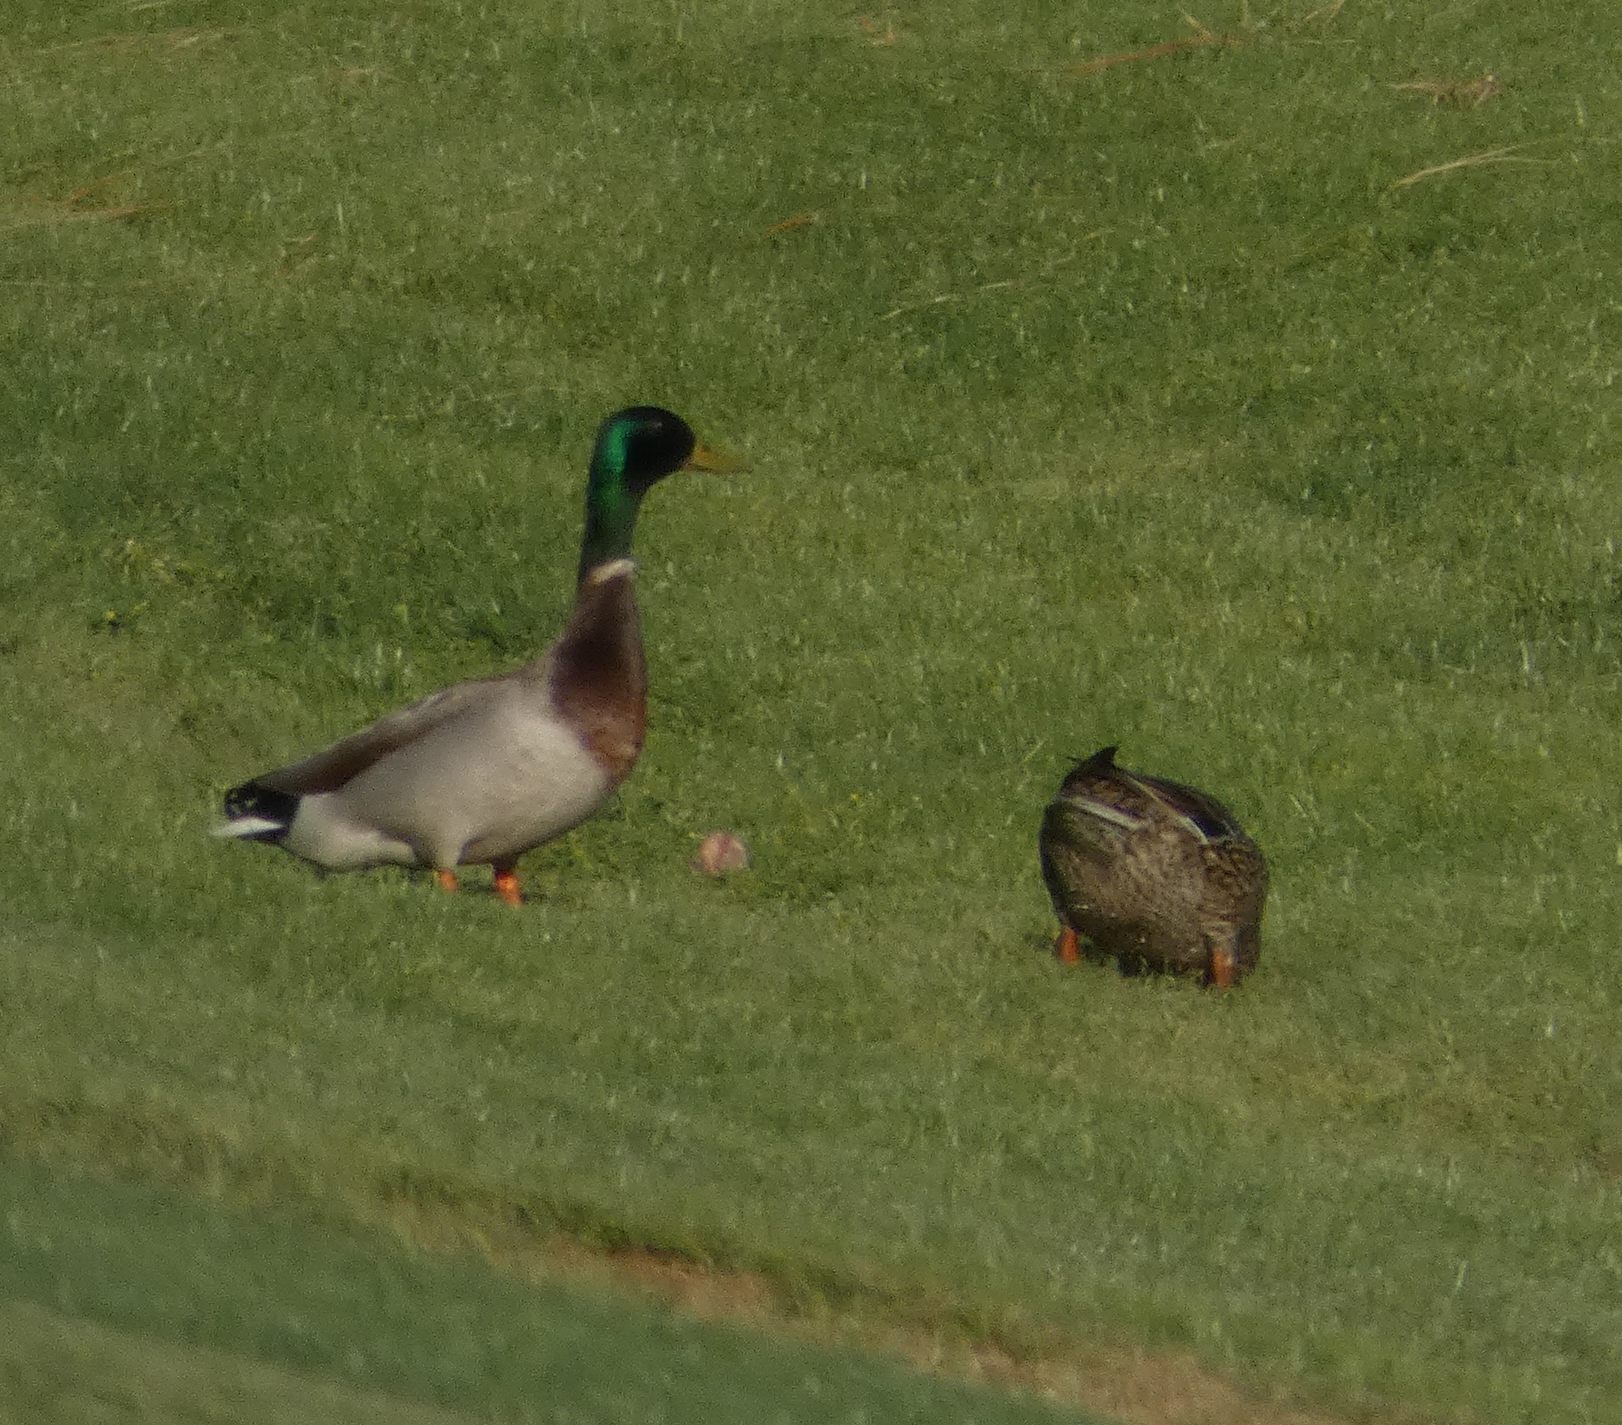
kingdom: Animalia
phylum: Chordata
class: Aves
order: Anseriformes
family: Anatidae
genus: Anas
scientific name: Anas platyrhynchos
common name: Mallard
